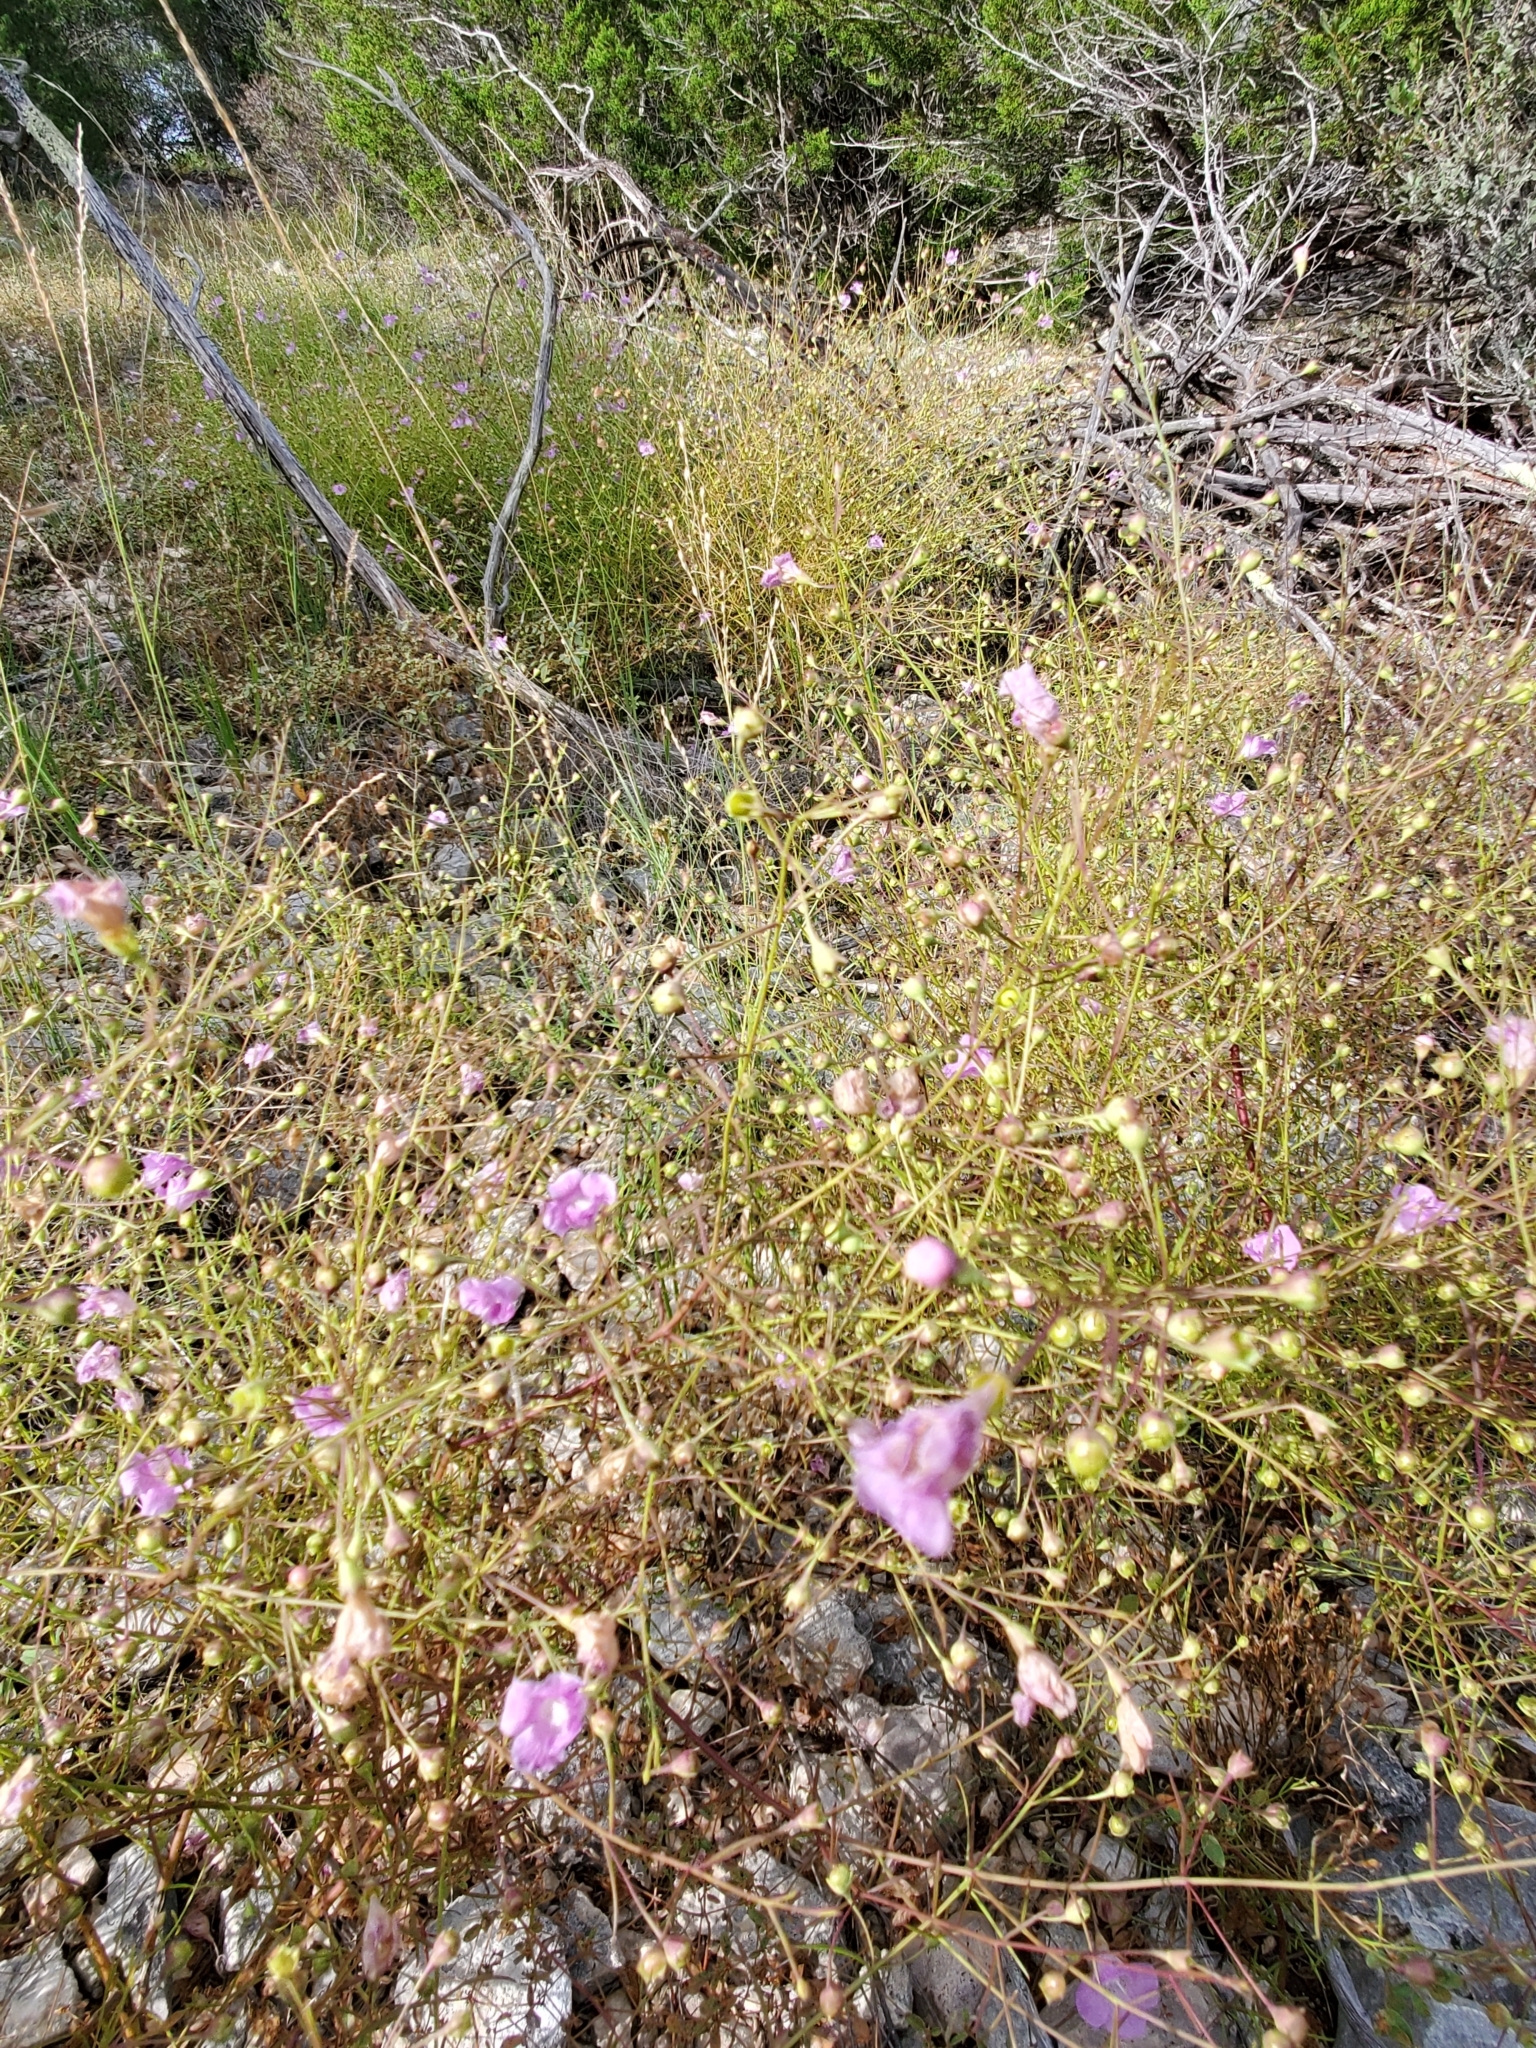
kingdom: Plantae
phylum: Tracheophyta
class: Magnoliopsida
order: Lamiales
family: Orobanchaceae
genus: Agalinis
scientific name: Agalinis edwardsiana
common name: Plateau-gerardia
